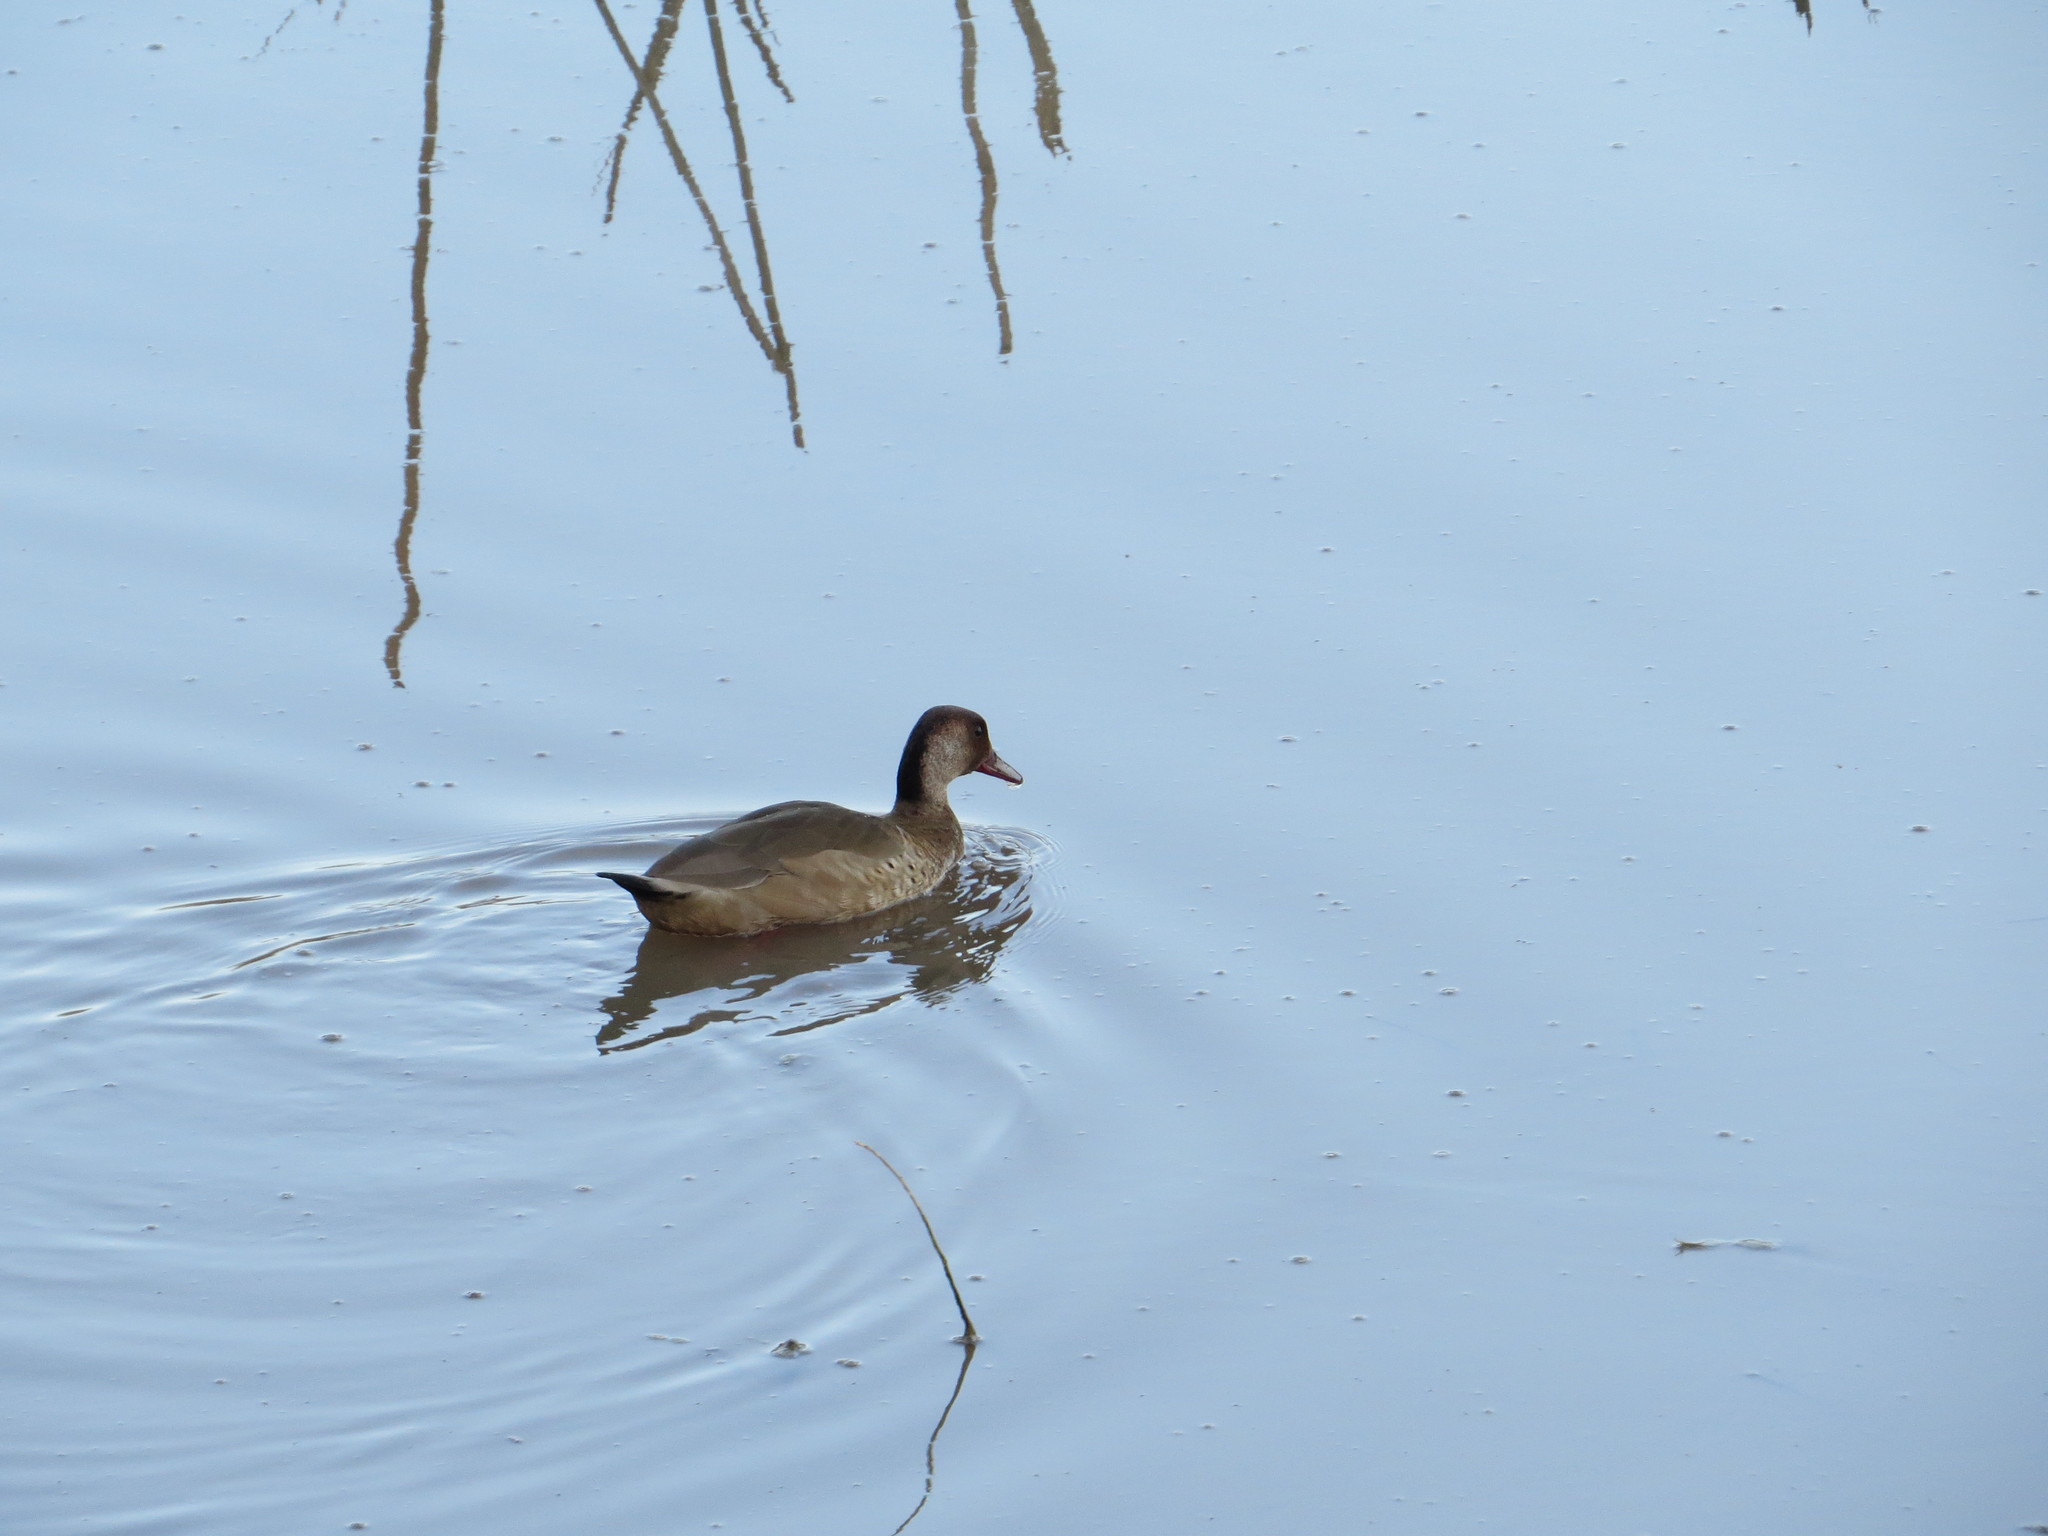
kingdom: Animalia
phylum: Chordata
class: Aves
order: Anseriformes
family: Anatidae
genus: Amazonetta
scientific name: Amazonetta brasiliensis
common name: Brazilian teal
